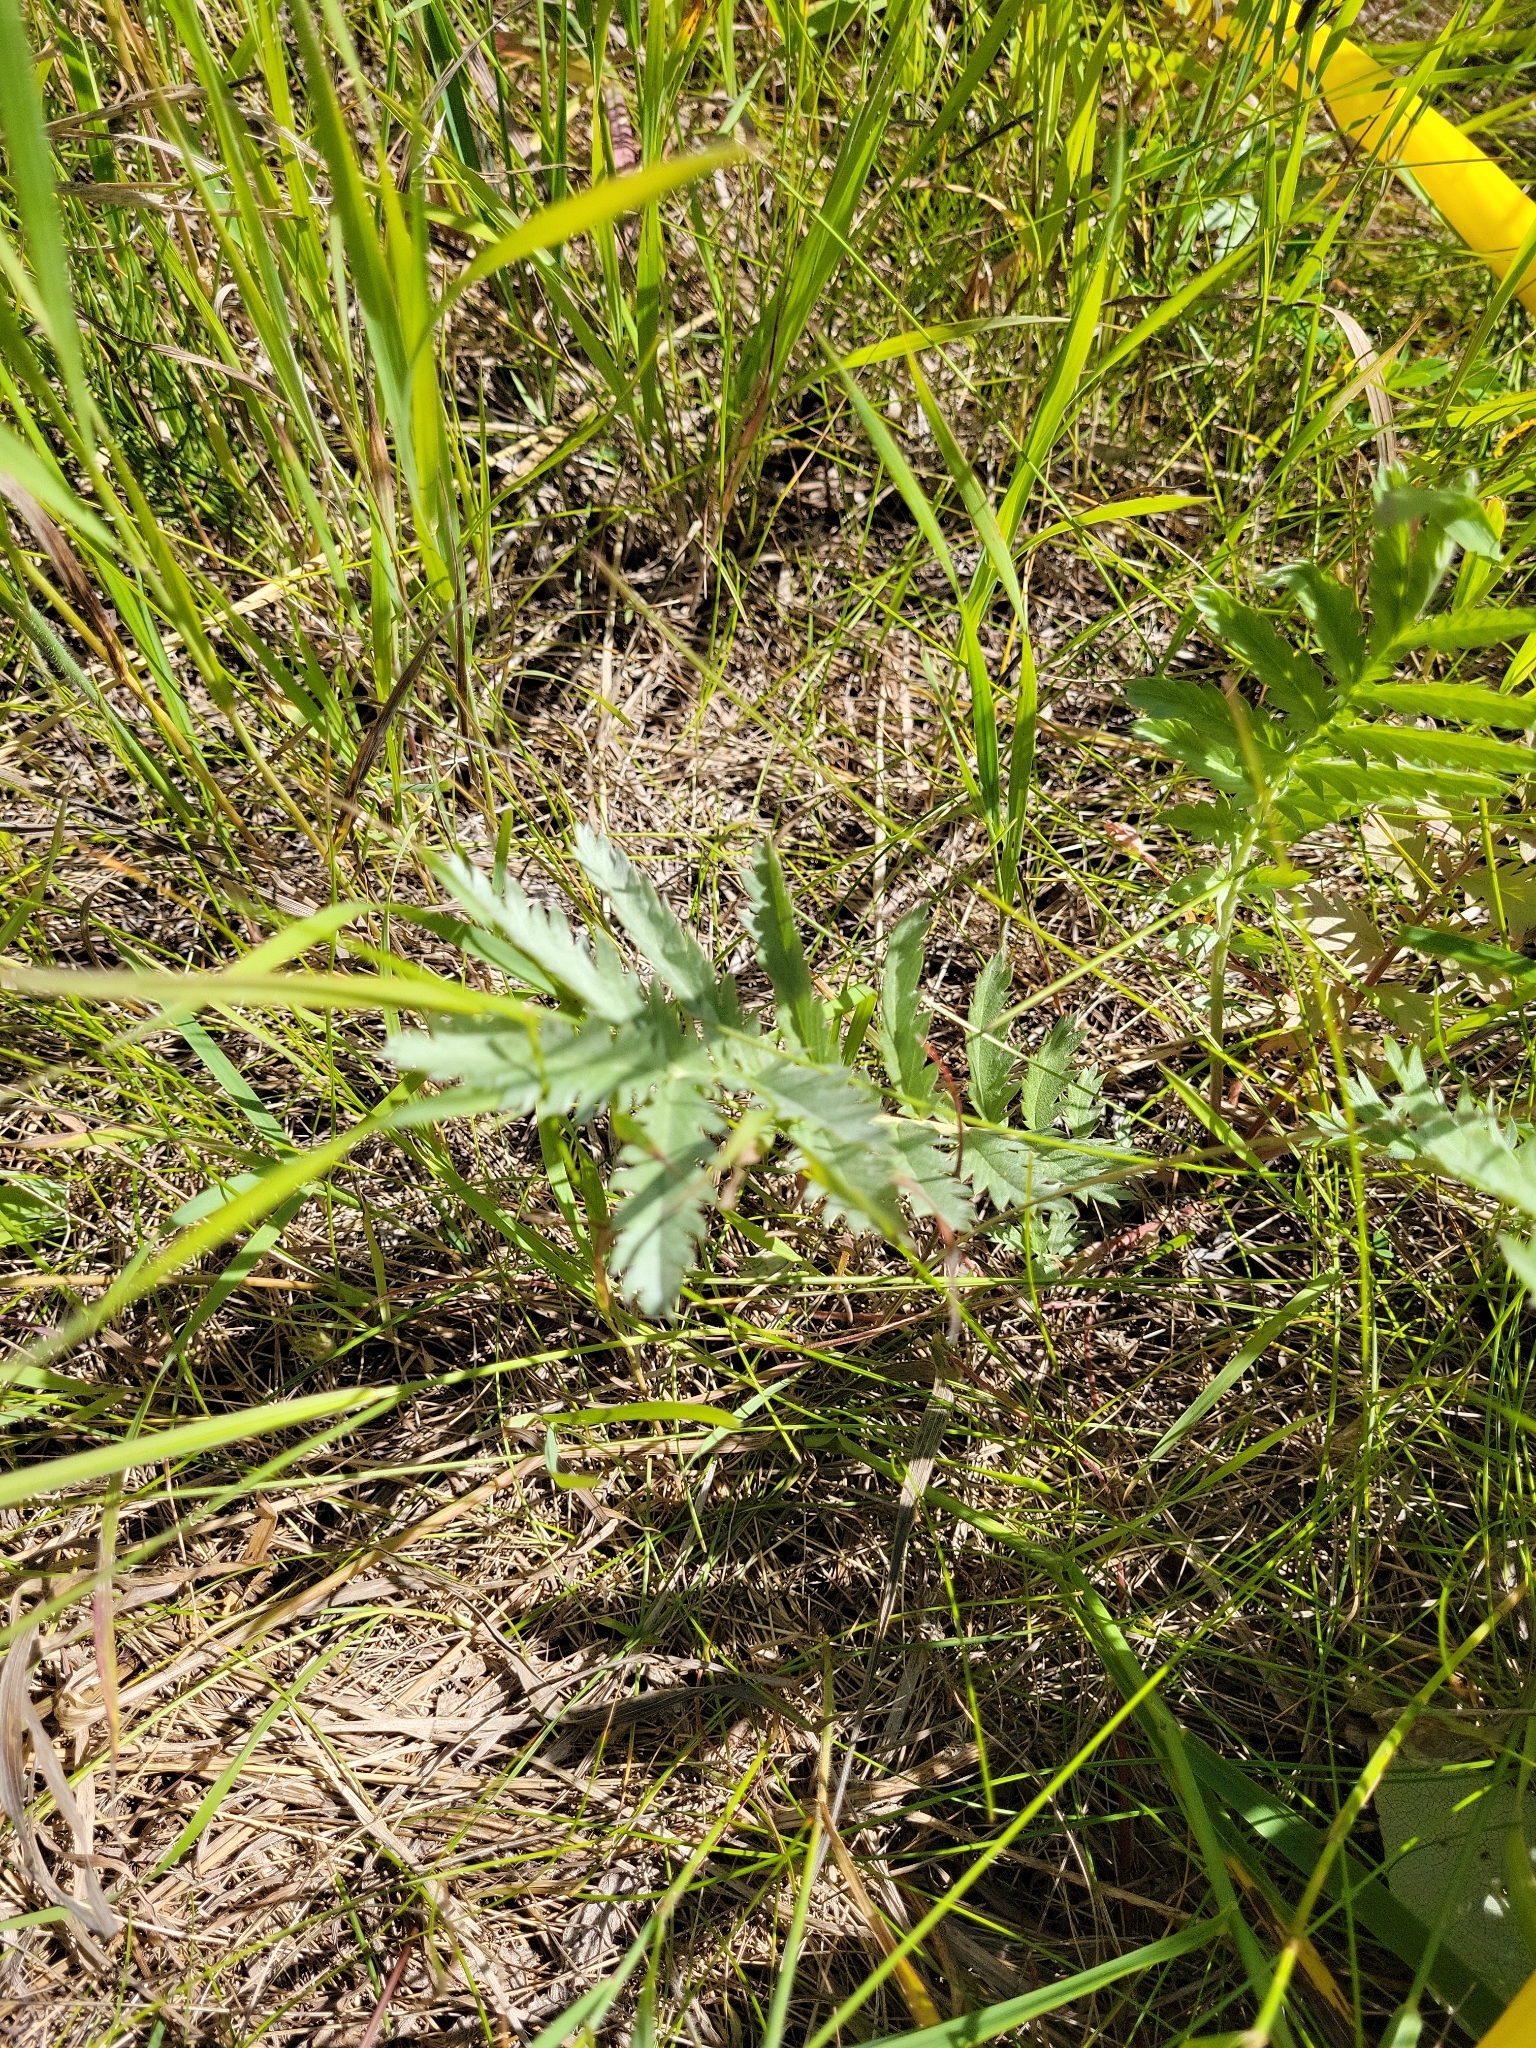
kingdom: Plantae
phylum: Tracheophyta
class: Magnoliopsida
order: Rosales
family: Rosaceae
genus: Argentina
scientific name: Argentina anserina
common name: Common silverweed
